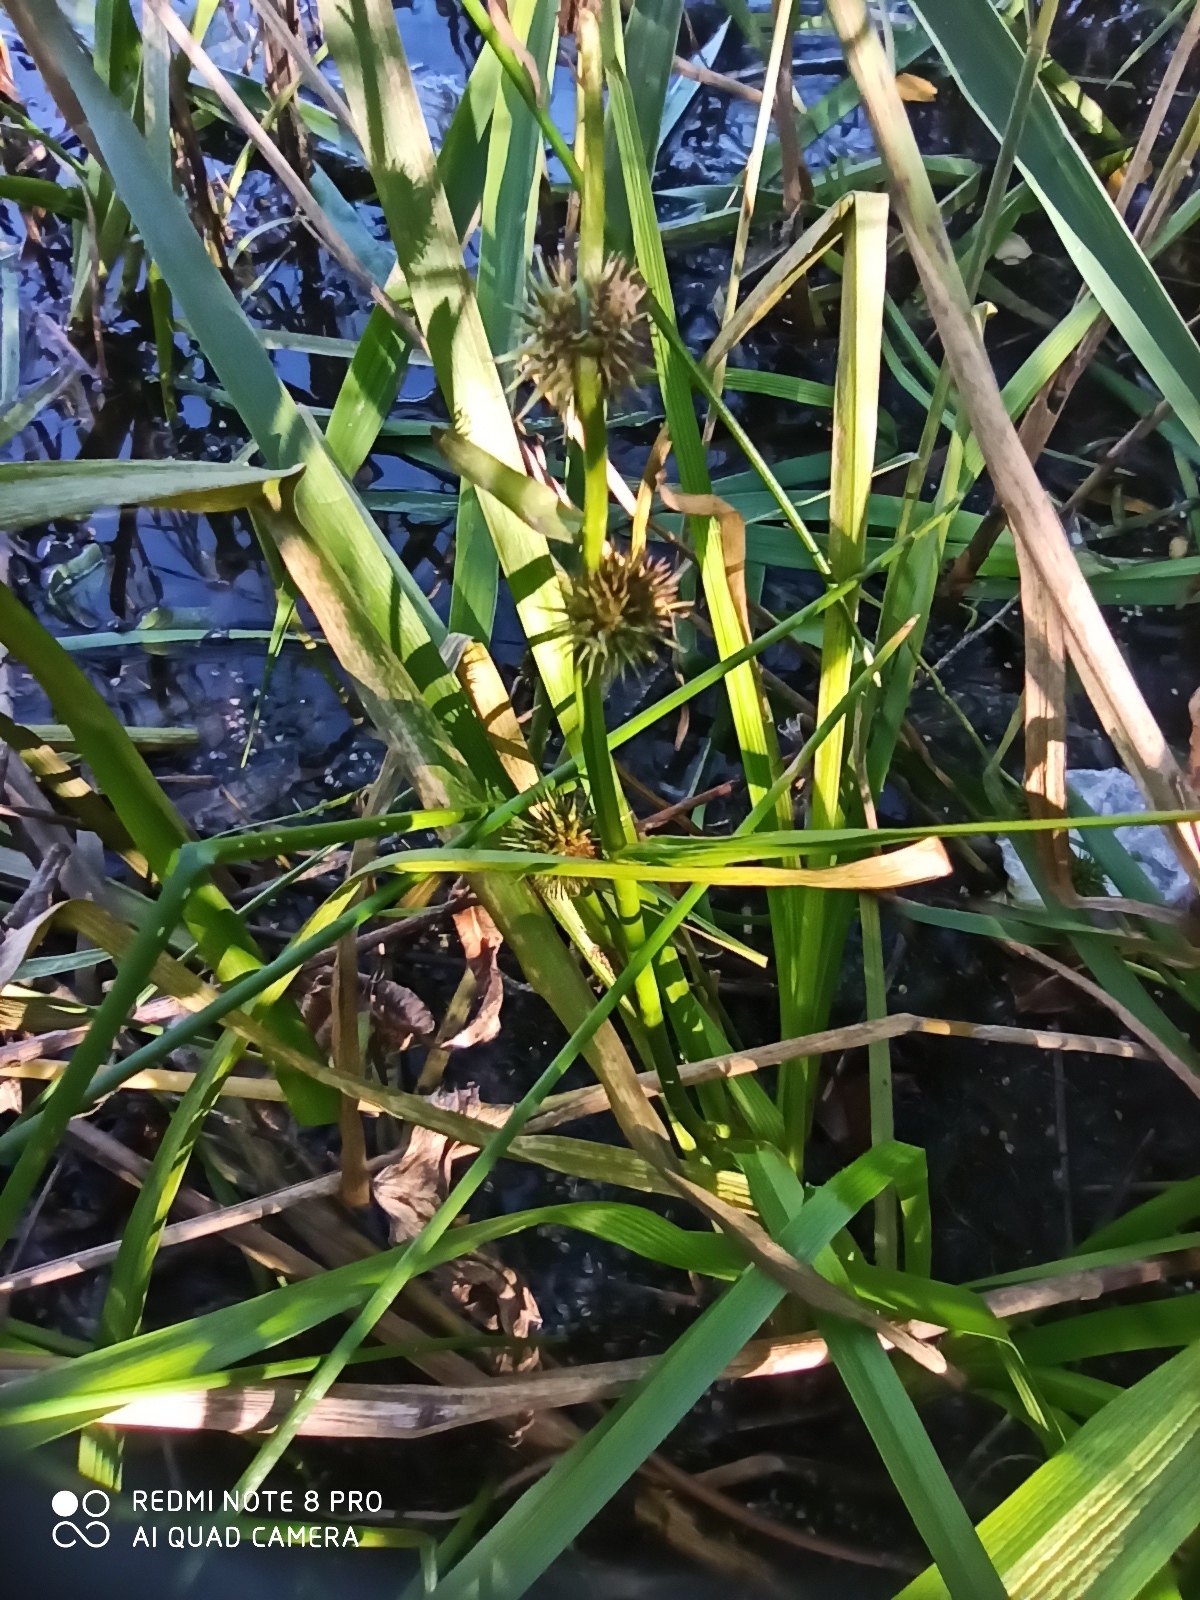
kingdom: Plantae
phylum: Tracheophyta
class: Liliopsida
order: Poales
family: Typhaceae
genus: Sparganium
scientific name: Sparganium emersum
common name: Unbranched bur-reed
